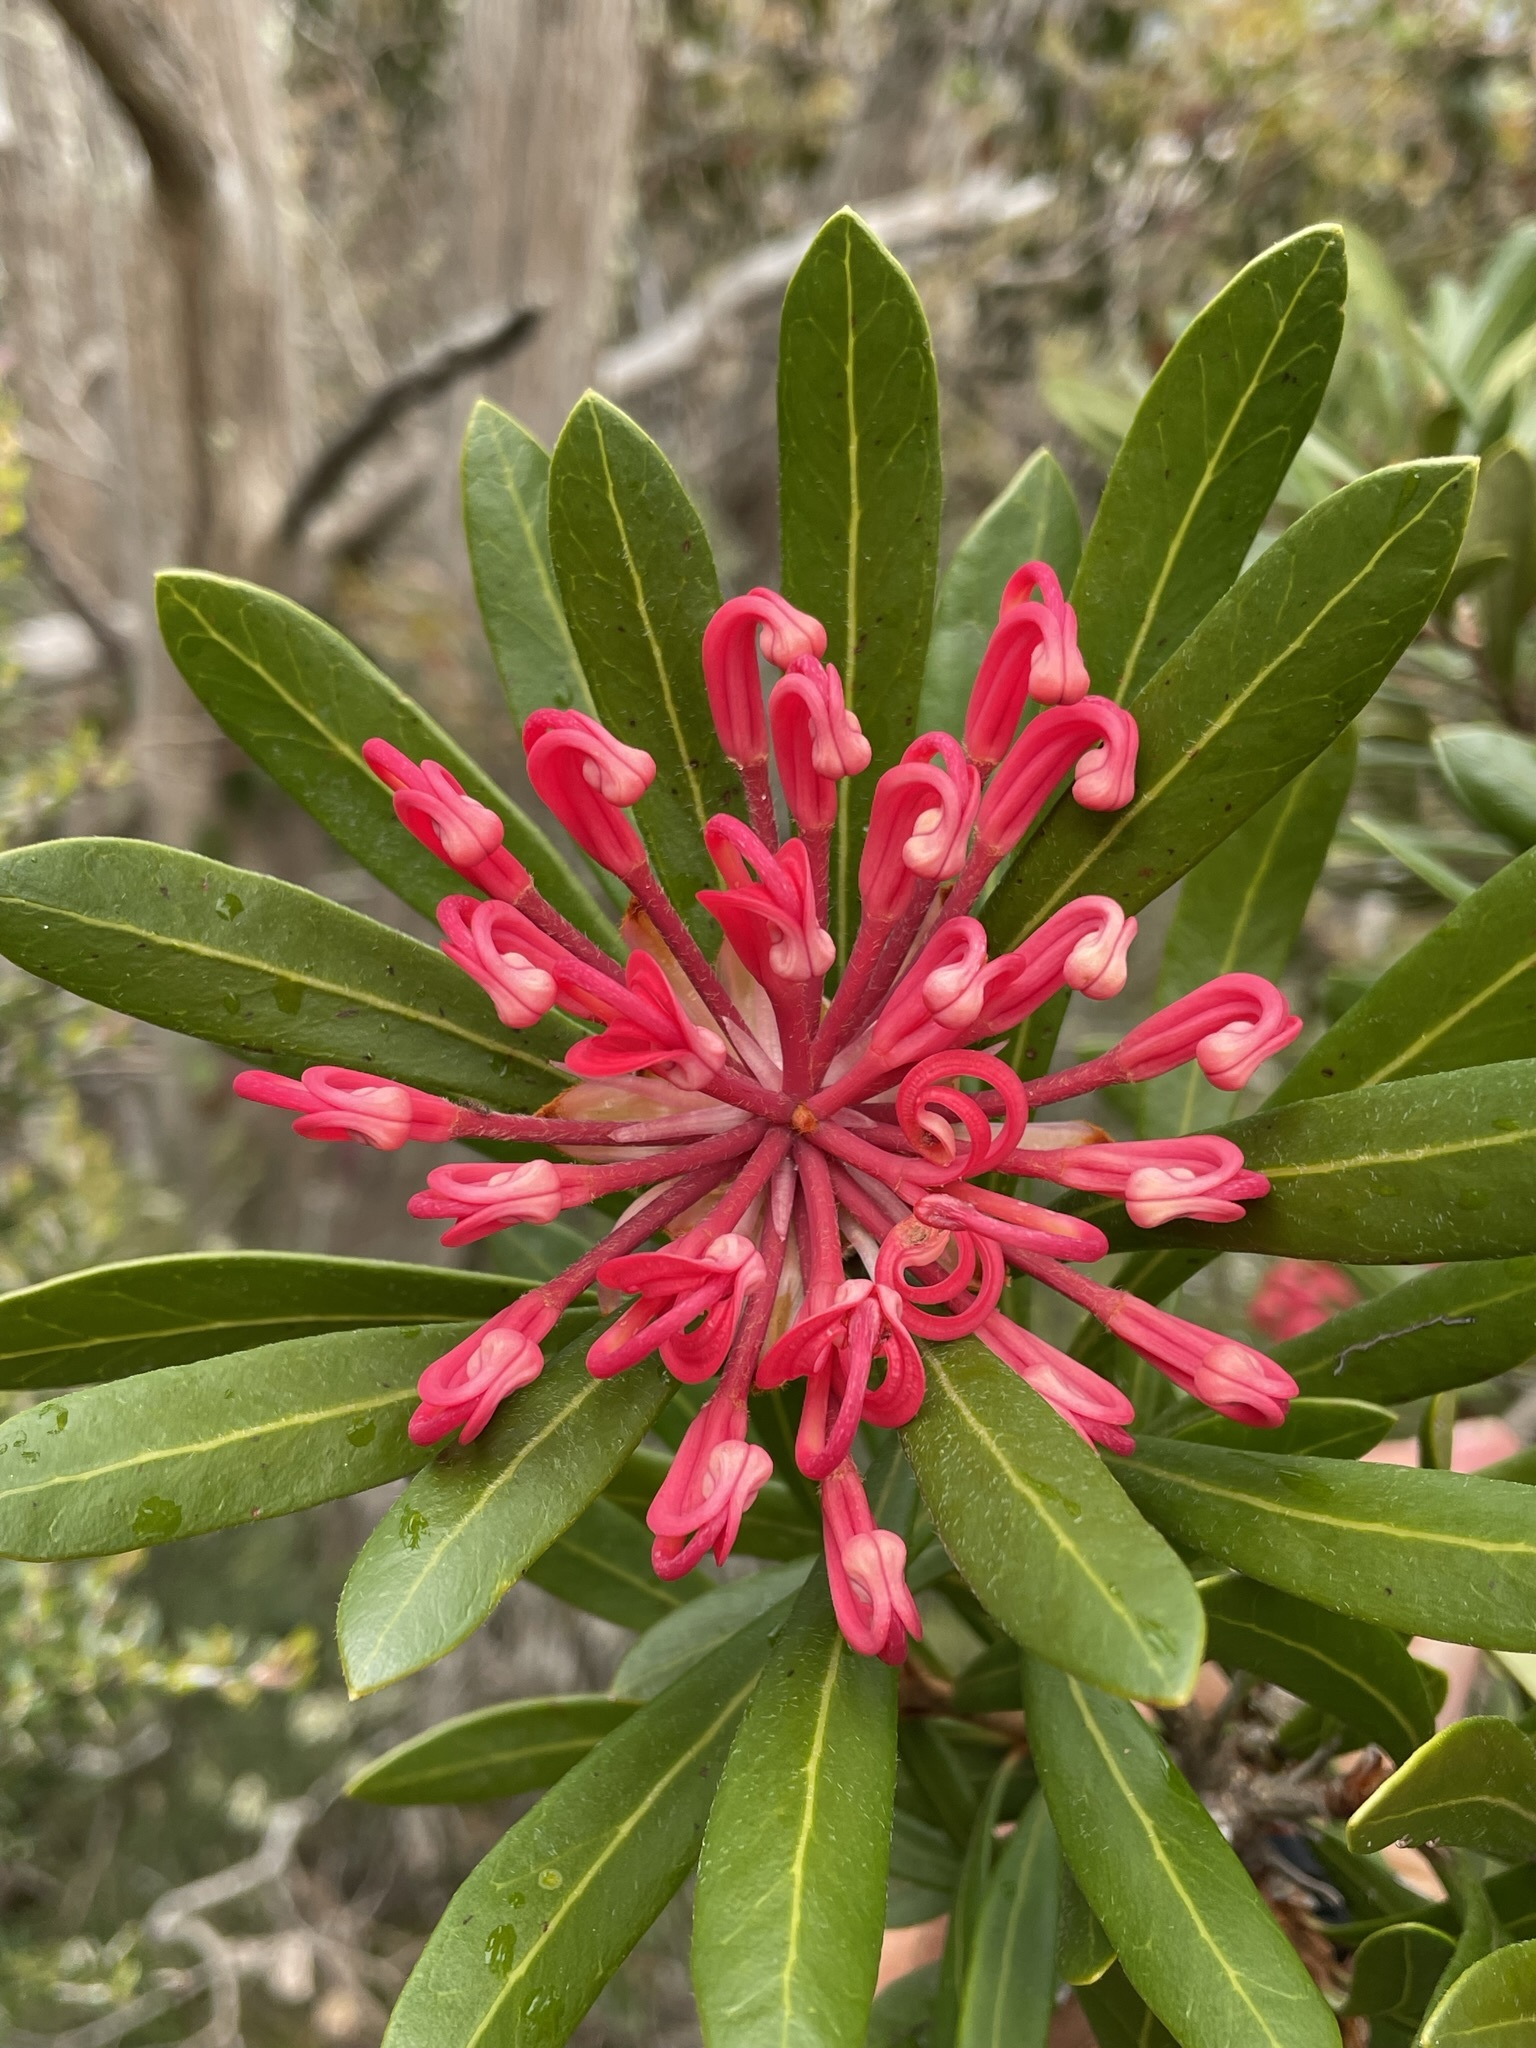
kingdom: Plantae
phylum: Tracheophyta
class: Magnoliopsida
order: Proteales
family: Proteaceae
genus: Telopea
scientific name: Telopea truncata
